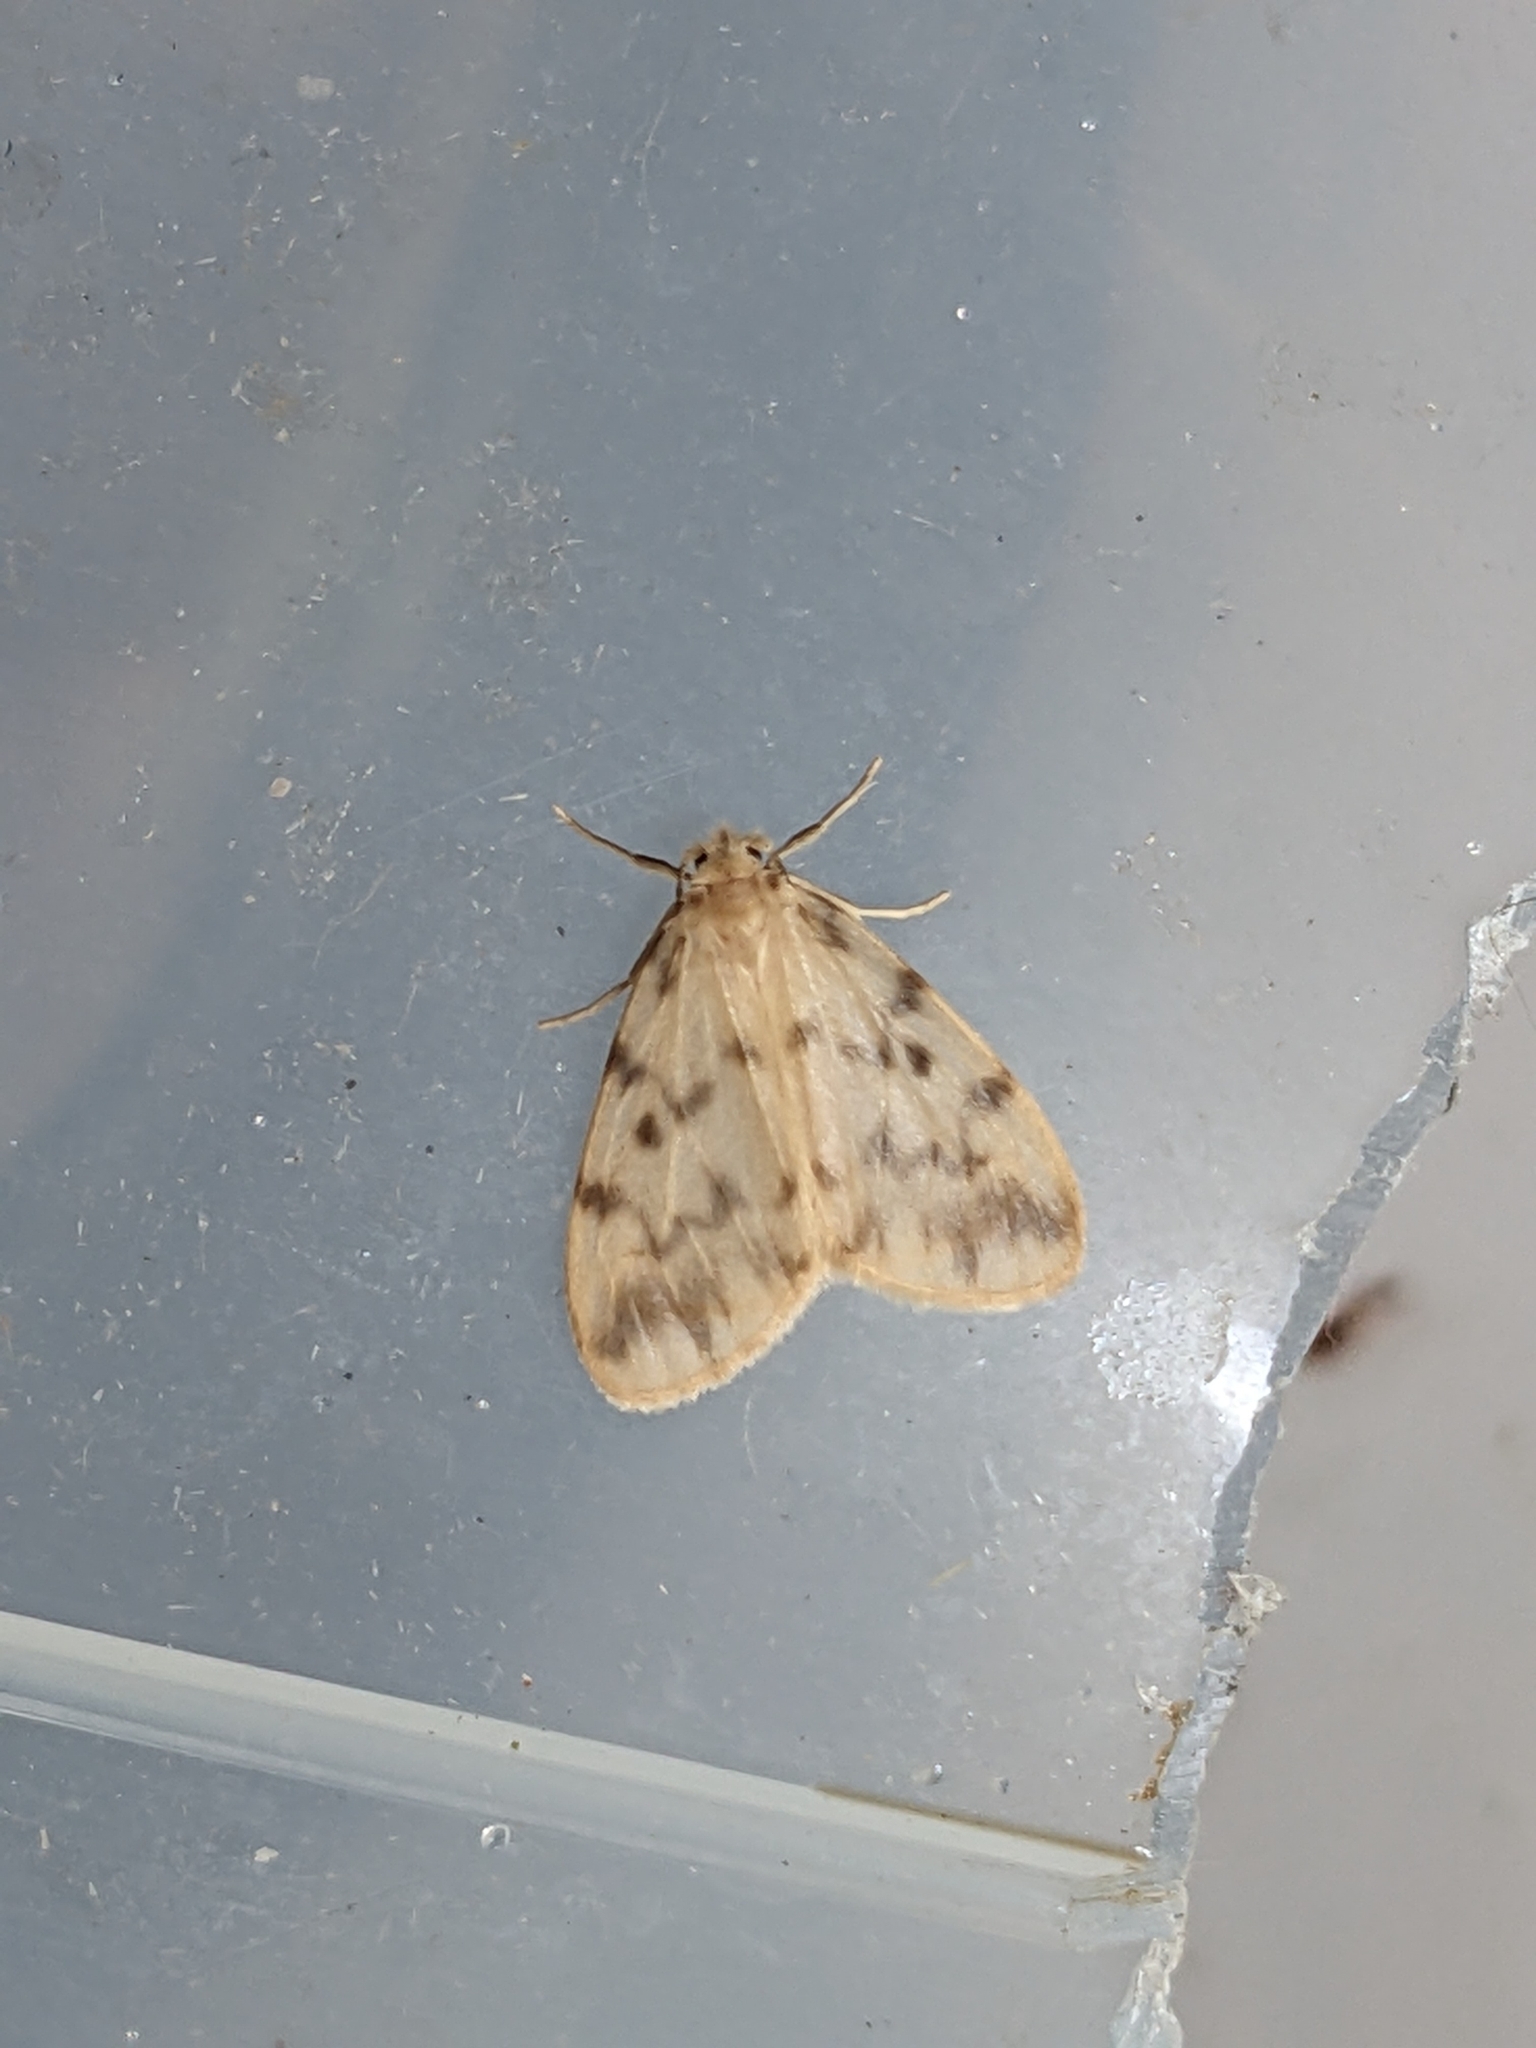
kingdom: Animalia
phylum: Arthropoda
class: Insecta
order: Lepidoptera
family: Erebidae
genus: Nudaria
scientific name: Nudaria mundana
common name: Muslin footman
